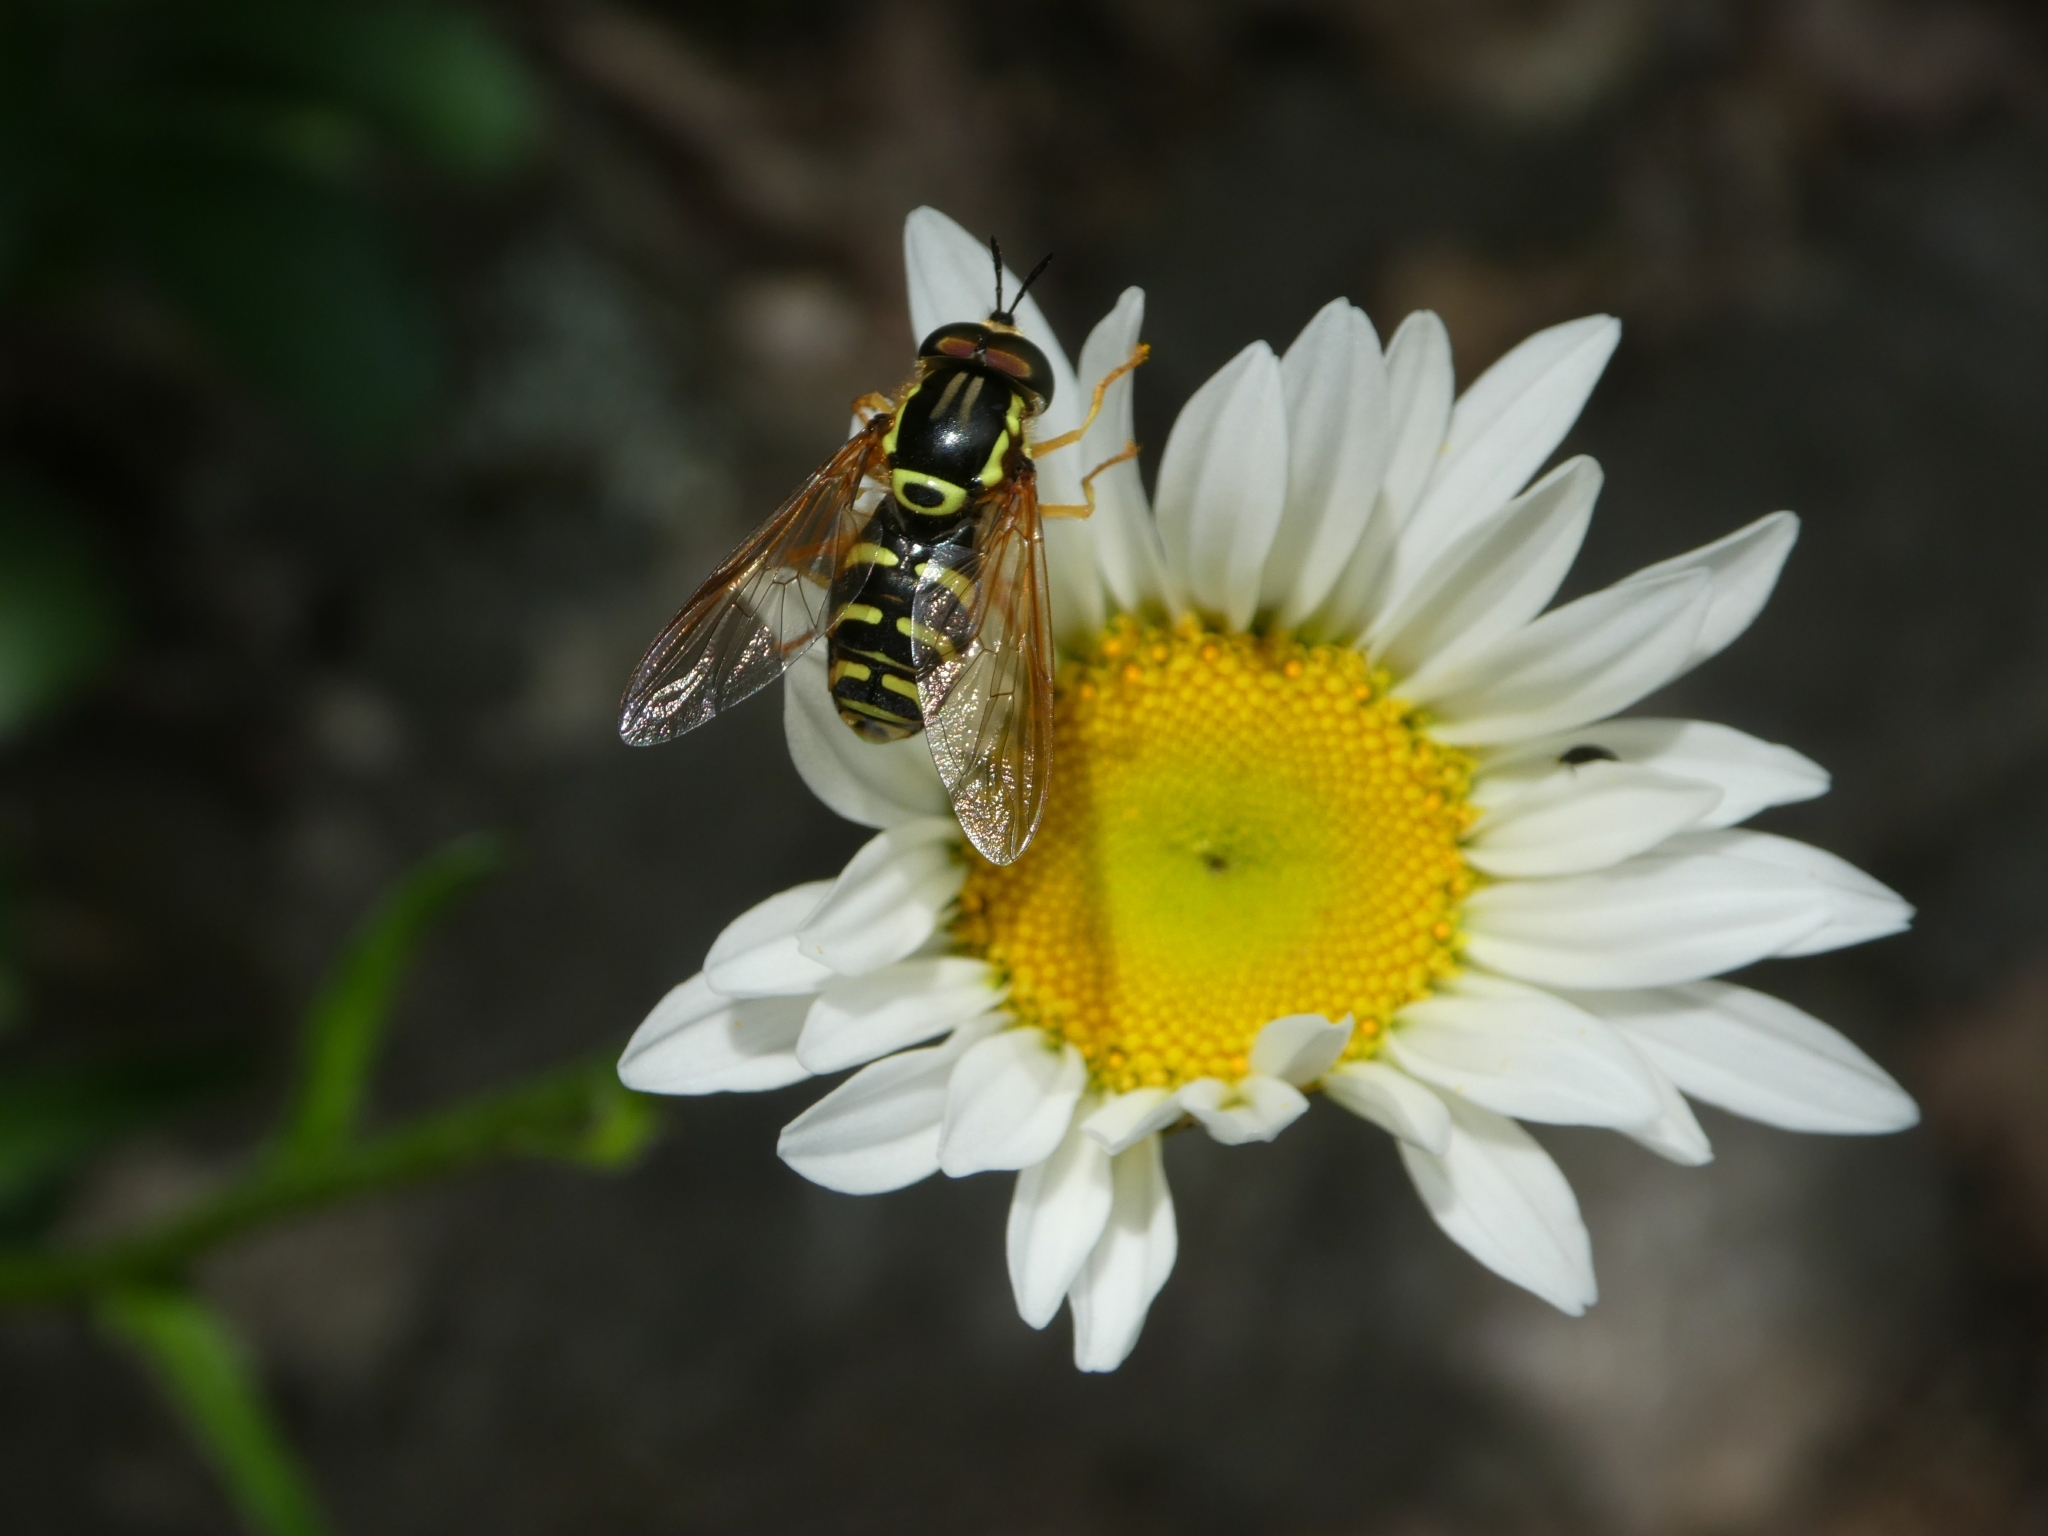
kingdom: Animalia
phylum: Arthropoda
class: Insecta
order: Diptera
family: Syrphidae
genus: Chrysotoxum
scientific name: Chrysotoxum elegans
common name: Zipperback
